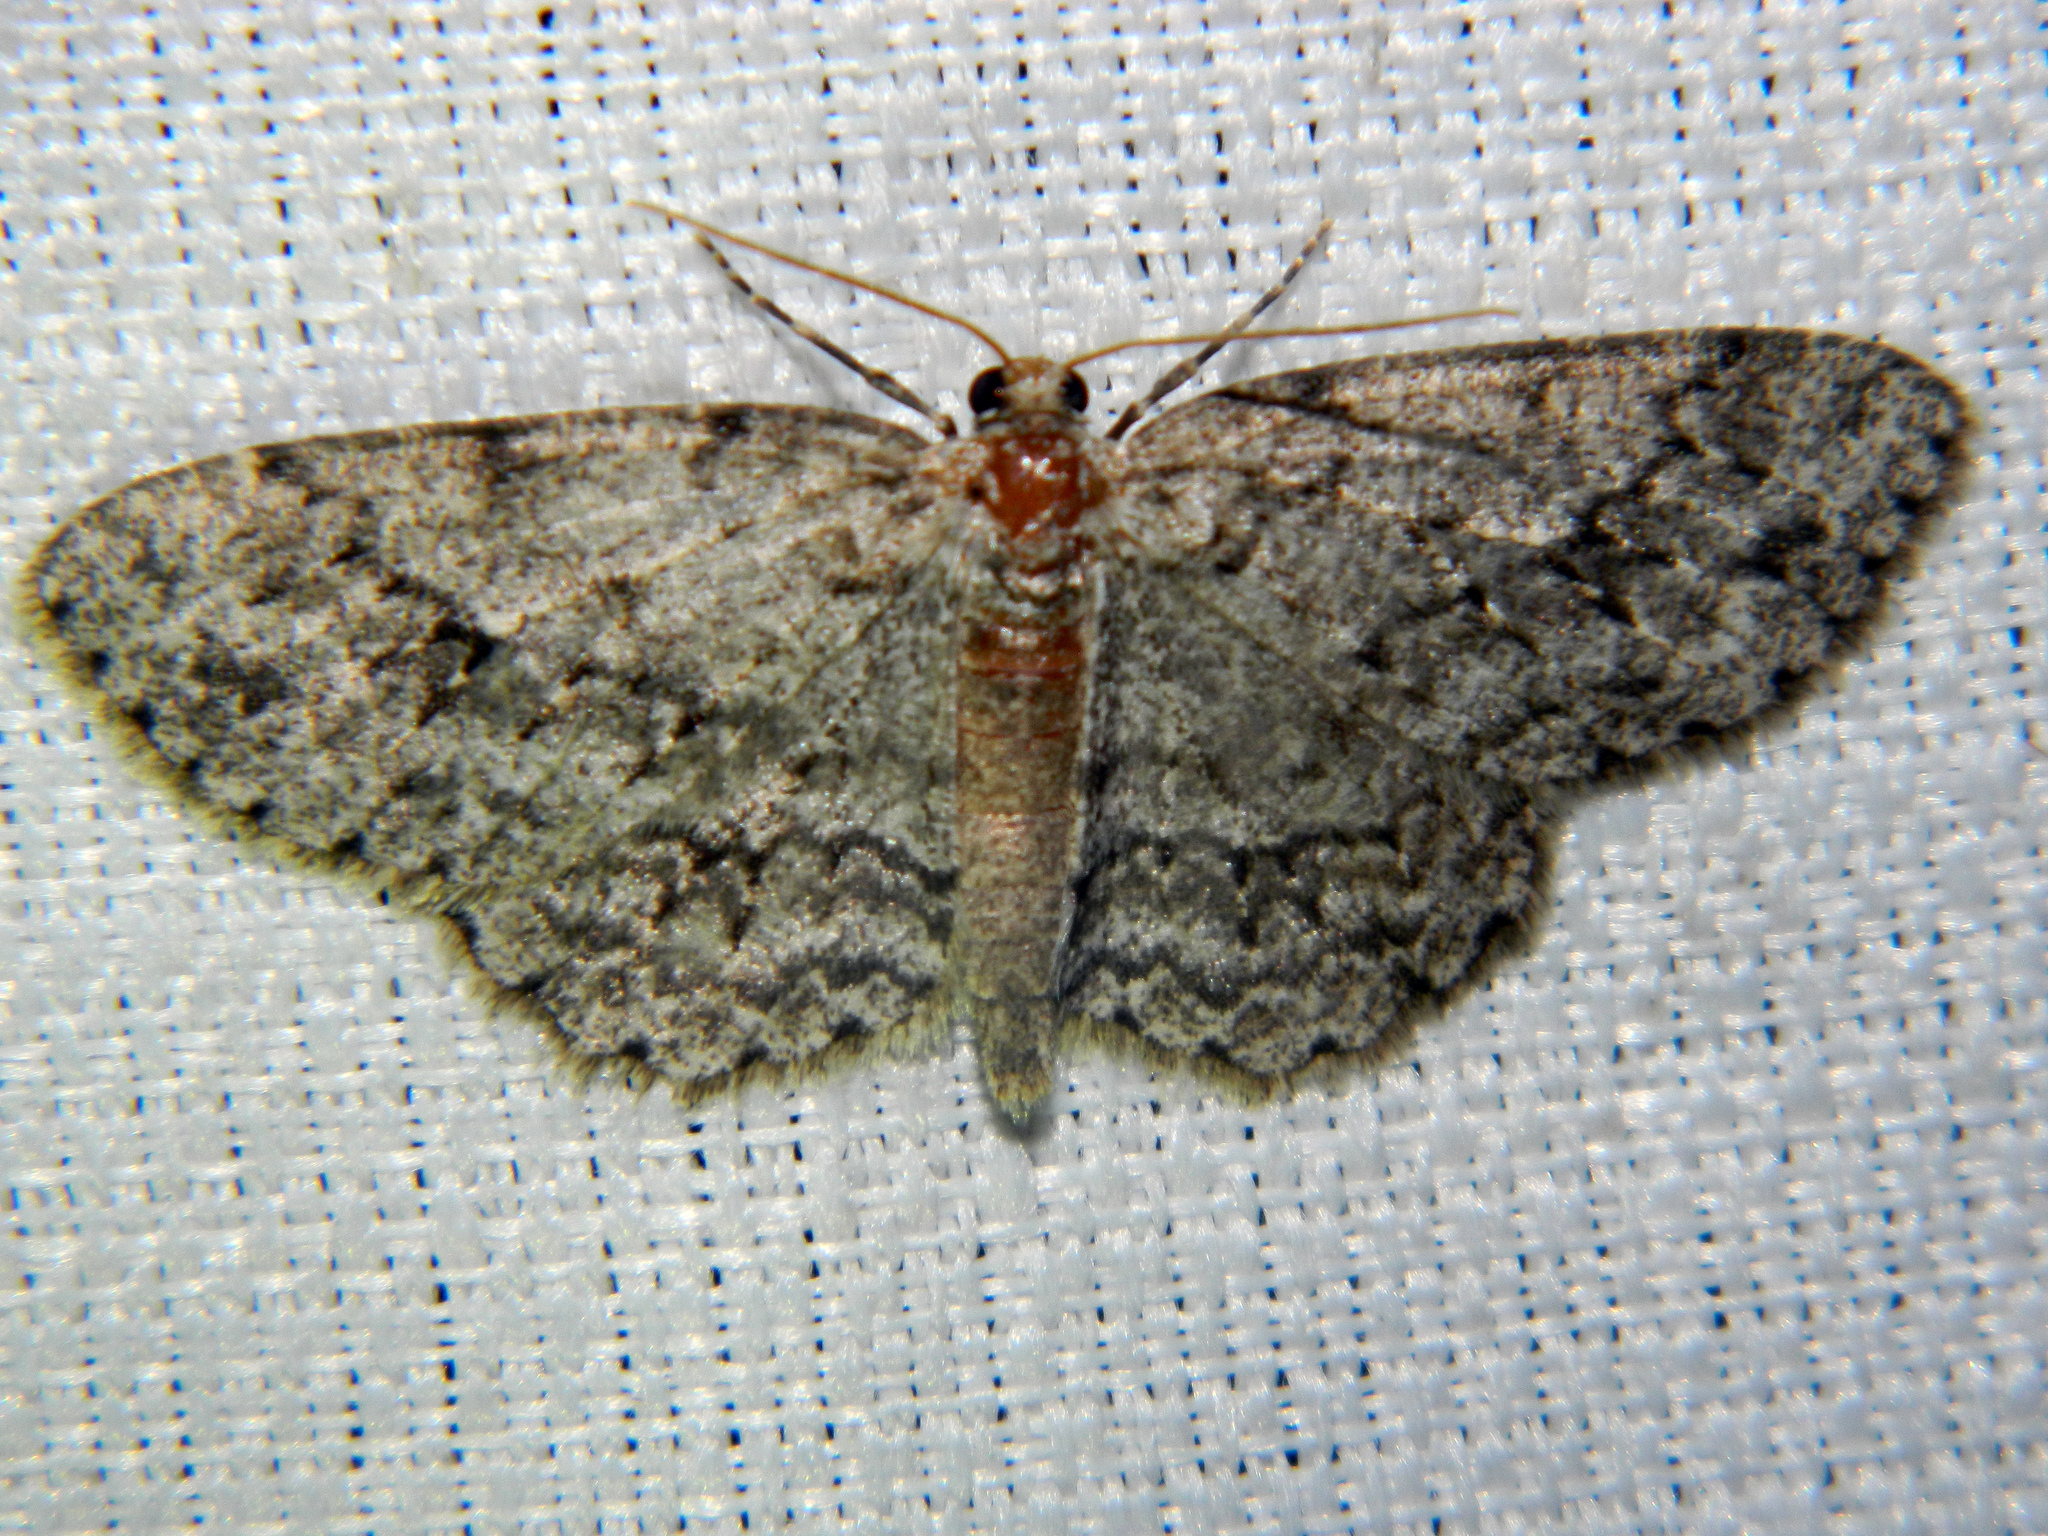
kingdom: Animalia
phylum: Arthropoda
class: Insecta
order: Lepidoptera
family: Geometridae
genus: Ectropis
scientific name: Ectropis crepuscularia
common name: Engrailed
